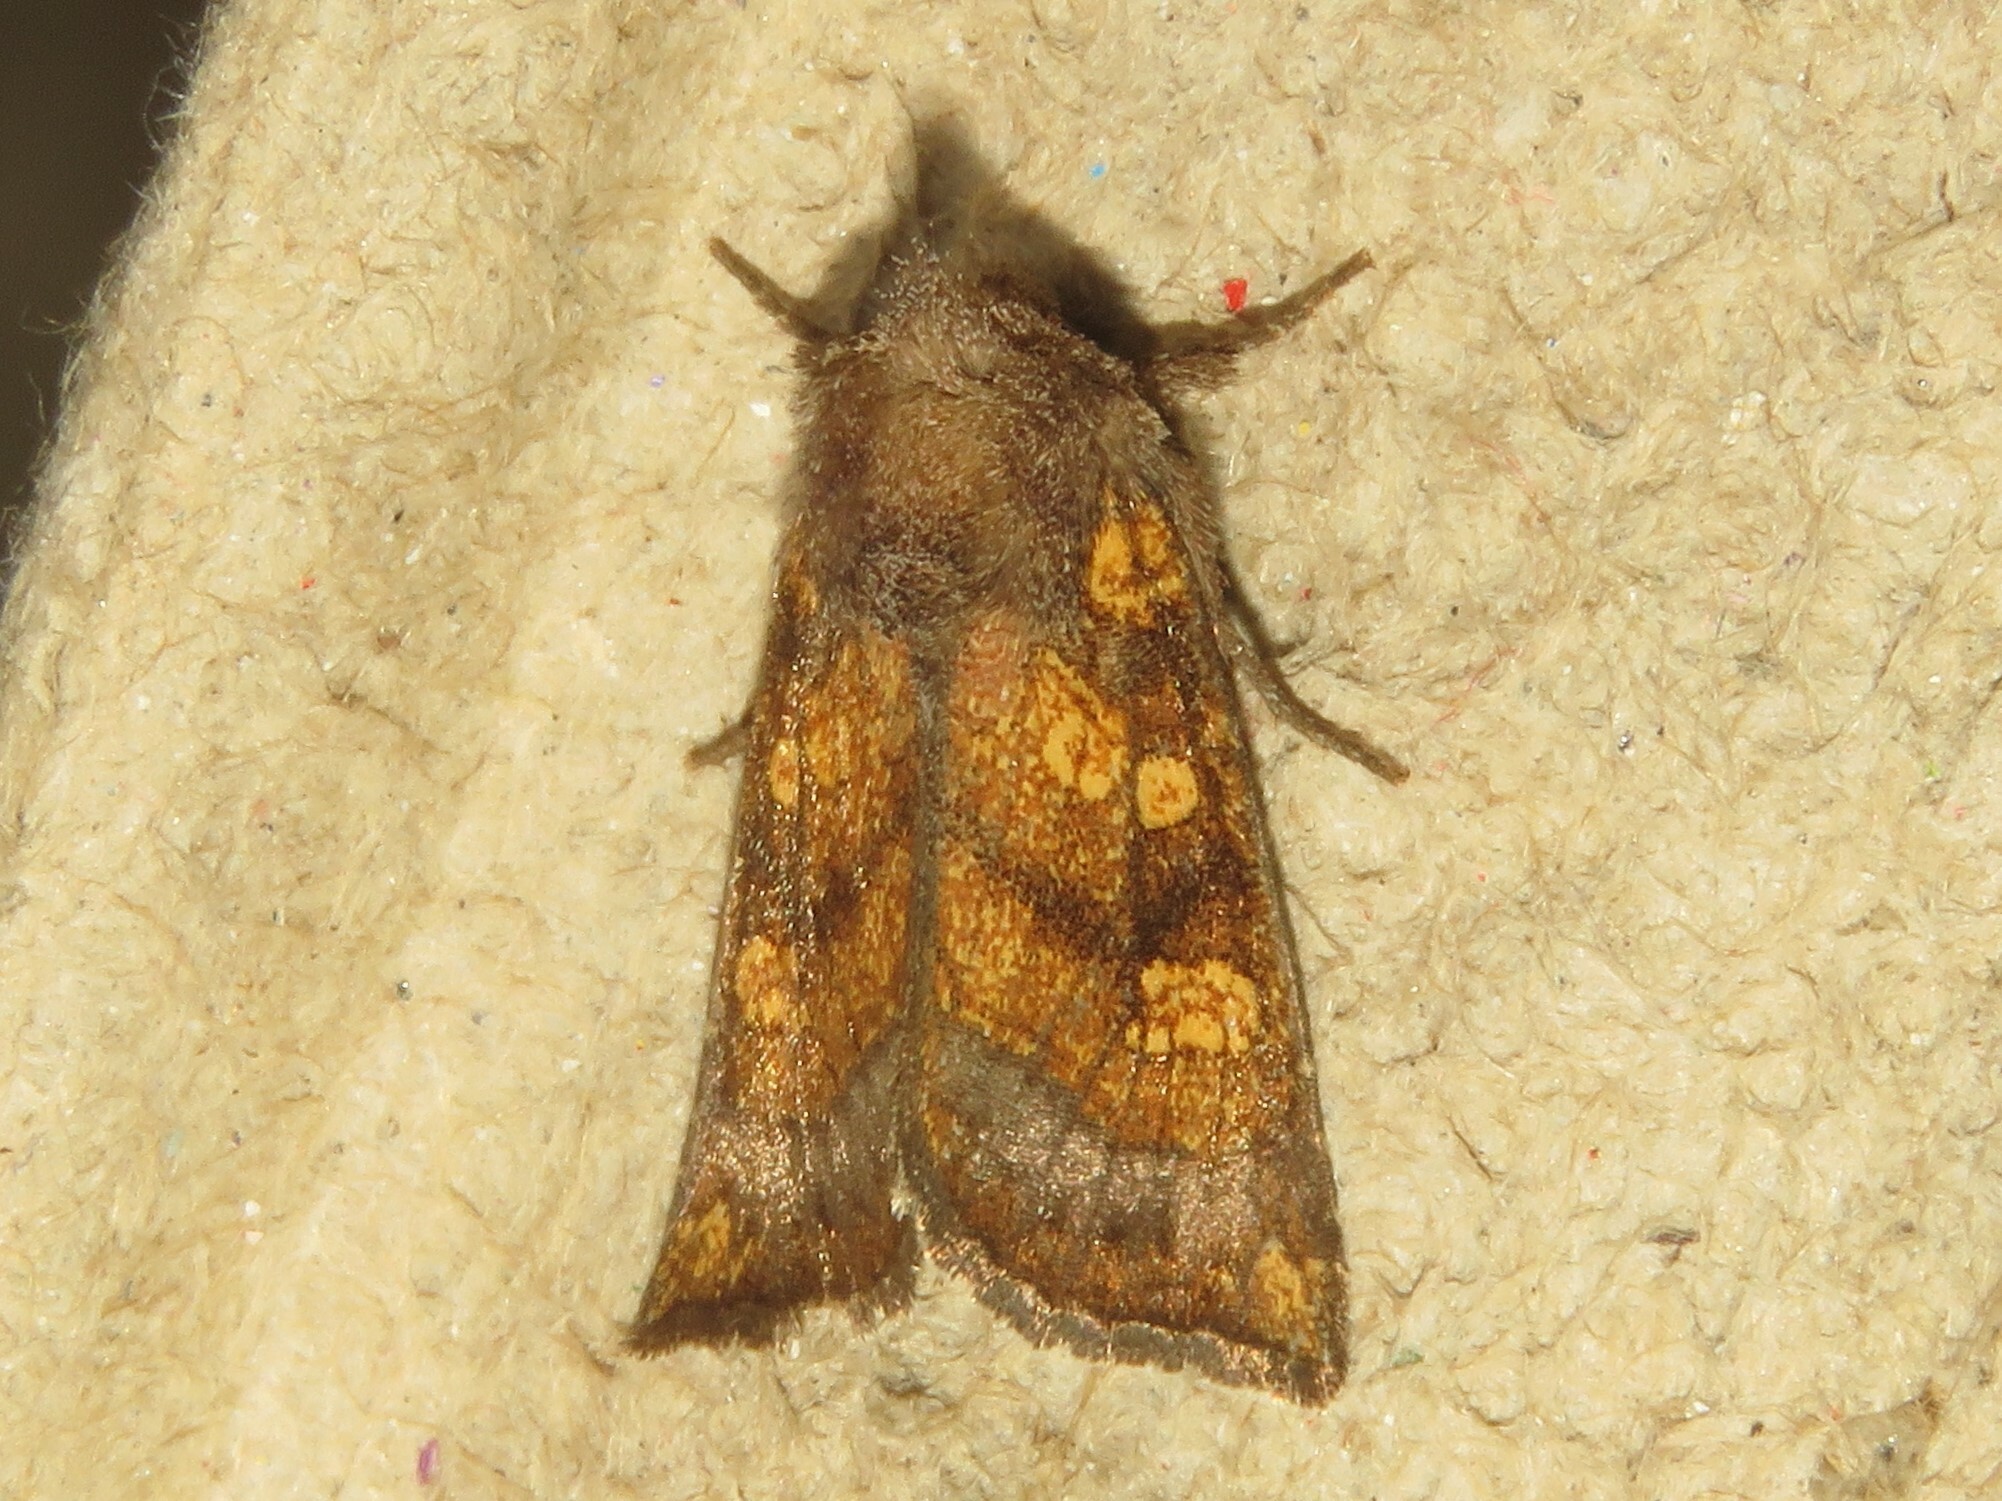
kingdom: Animalia
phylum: Arthropoda
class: Insecta
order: Lepidoptera
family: Noctuidae
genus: Papaipema
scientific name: Papaipema impecuniosa
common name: Aster borer moth
